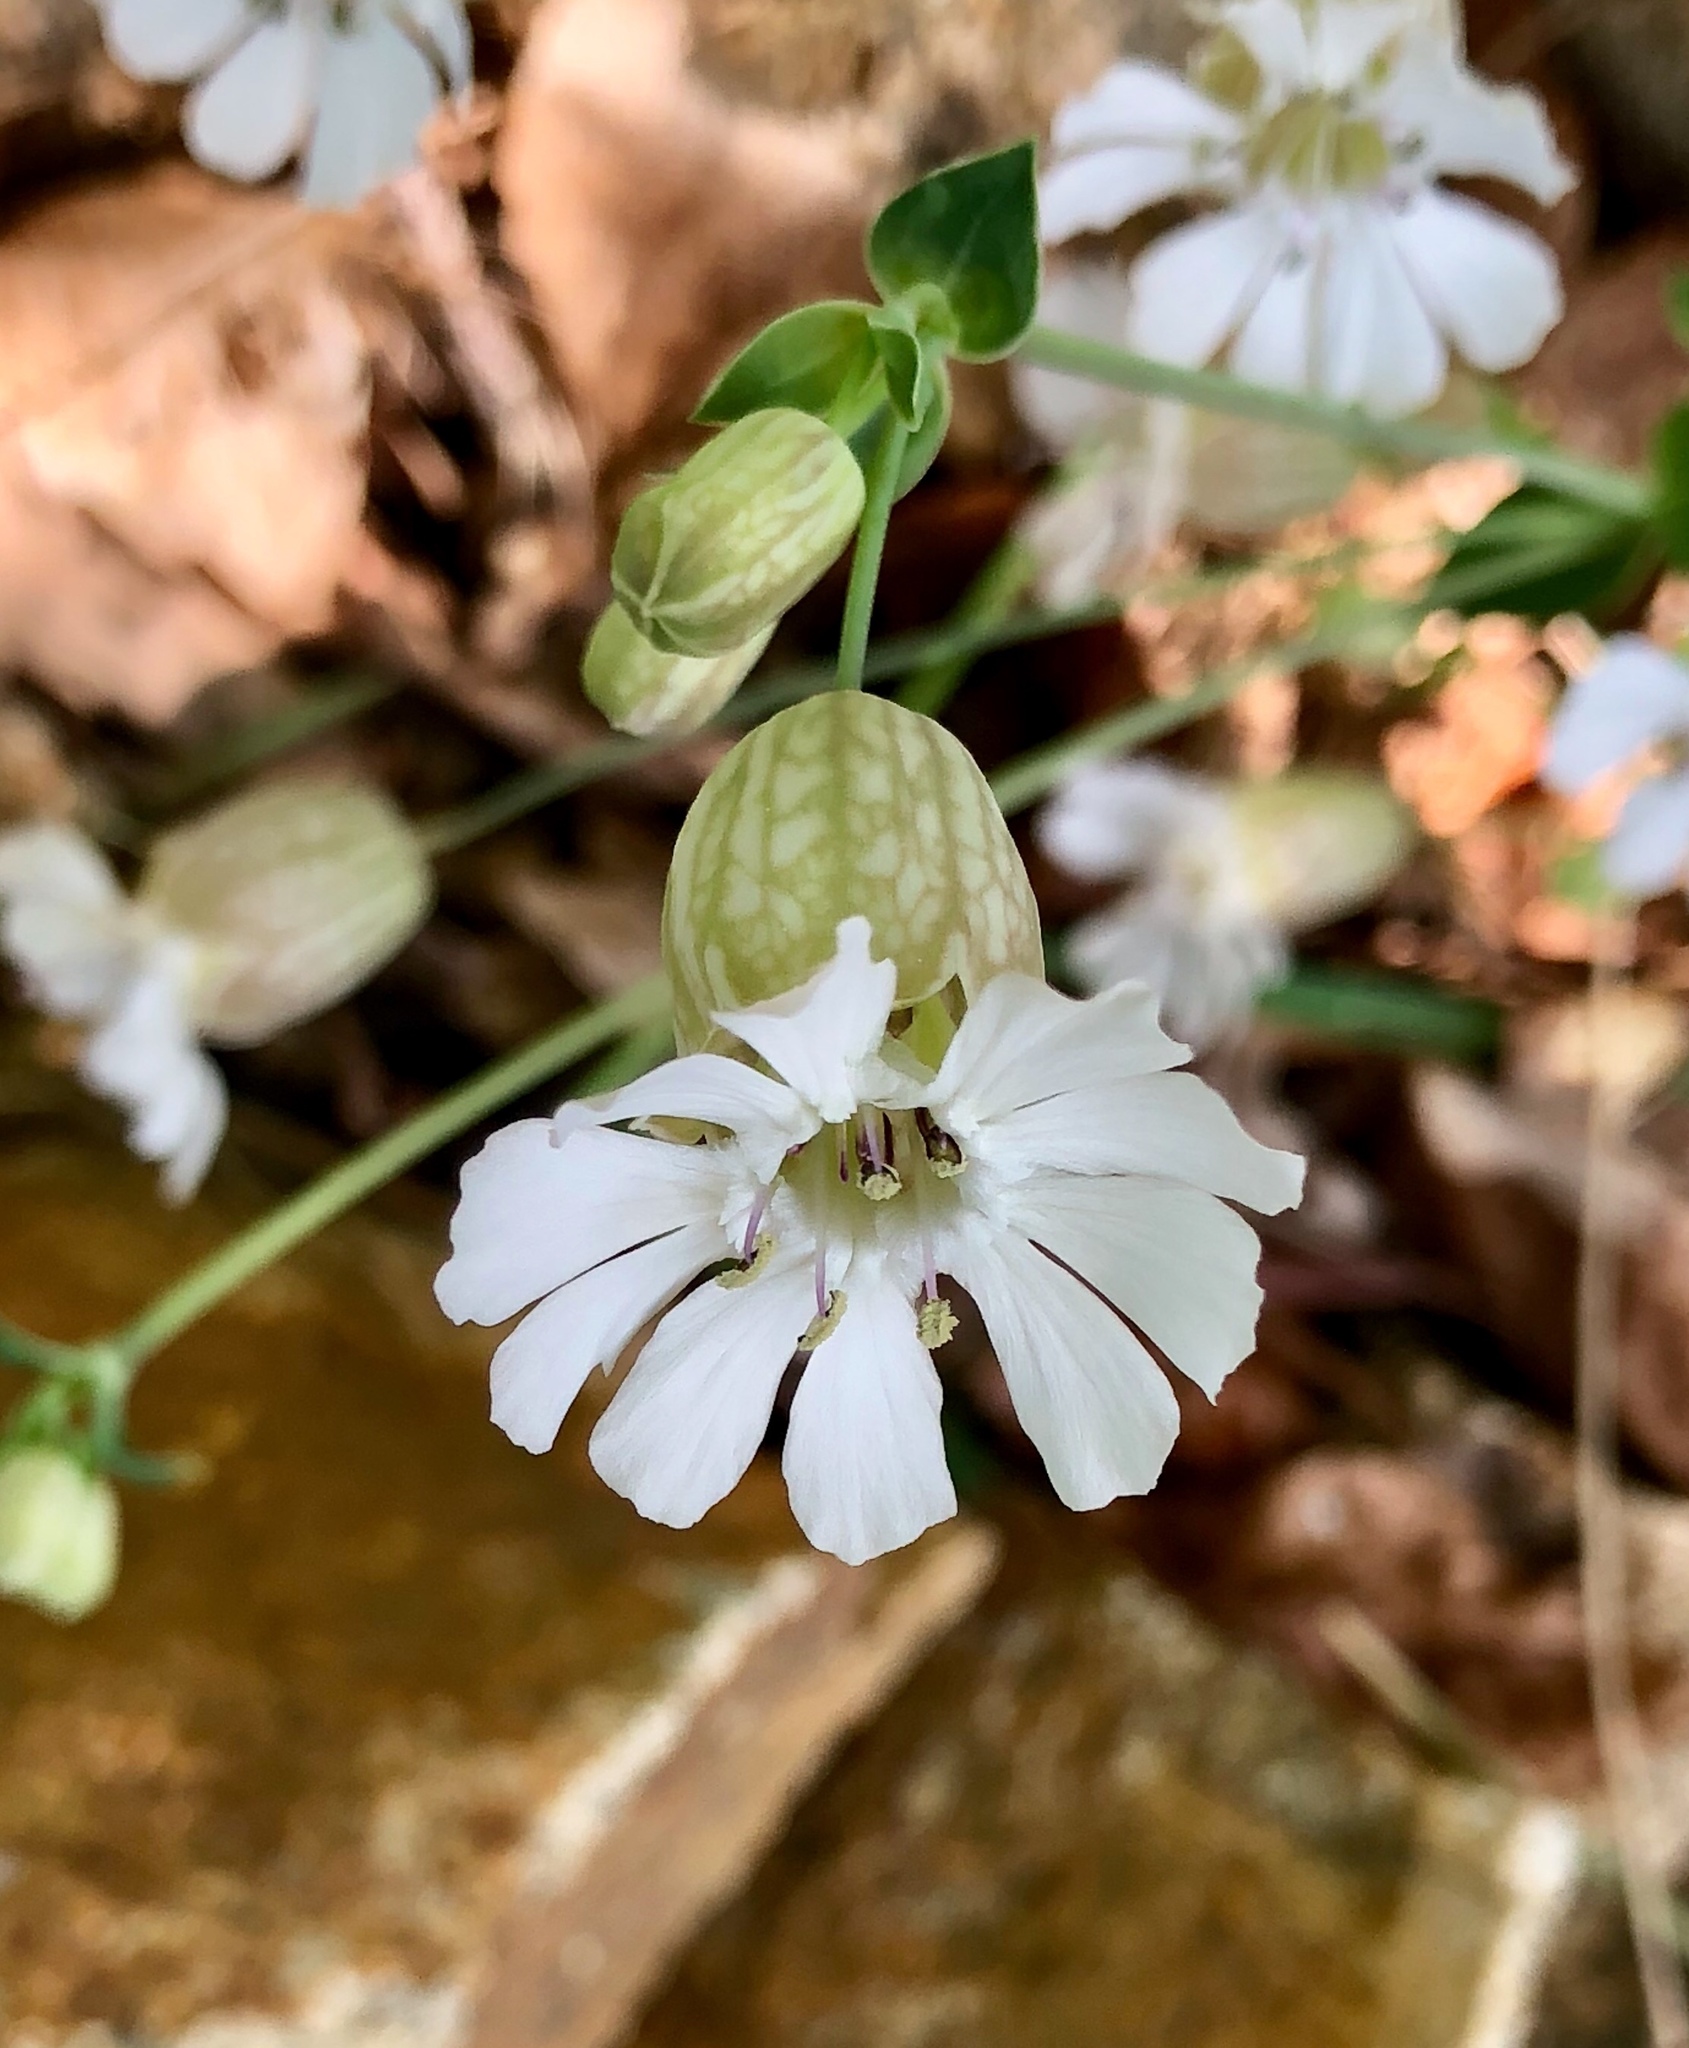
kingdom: Plantae
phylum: Tracheophyta
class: Magnoliopsida
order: Caryophyllales
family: Caryophyllaceae
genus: Silene
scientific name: Silene vulgaris
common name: Bladder campion
